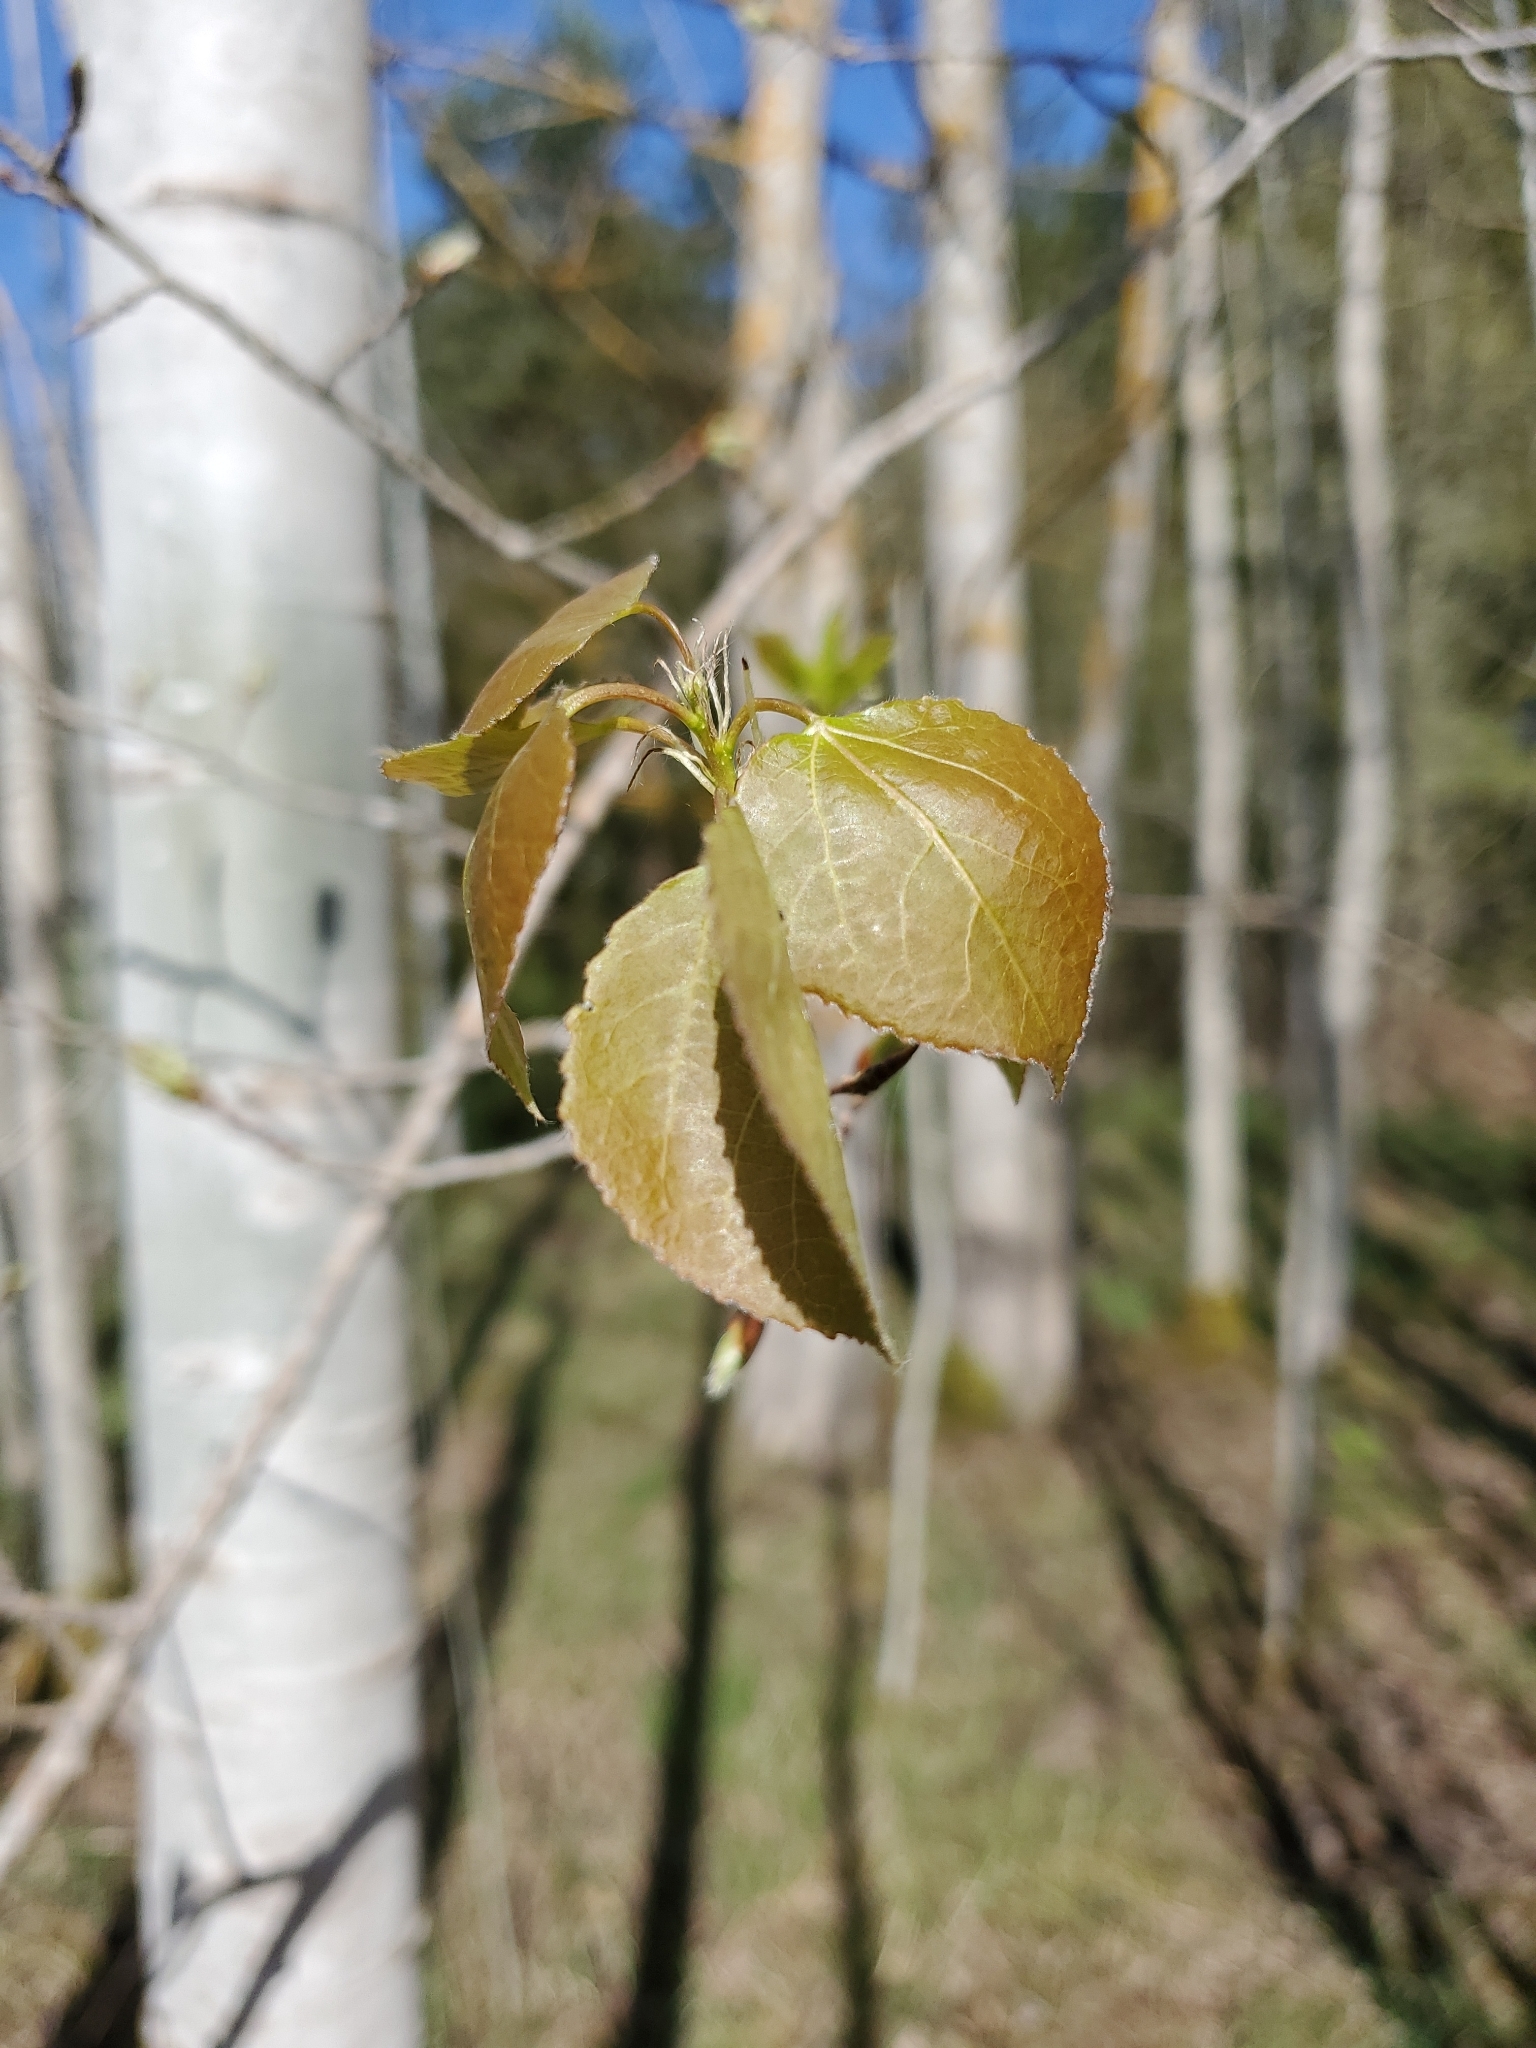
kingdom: Plantae
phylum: Tracheophyta
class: Magnoliopsida
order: Malpighiales
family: Salicaceae
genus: Populus
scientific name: Populus tremuloides
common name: Quaking aspen
